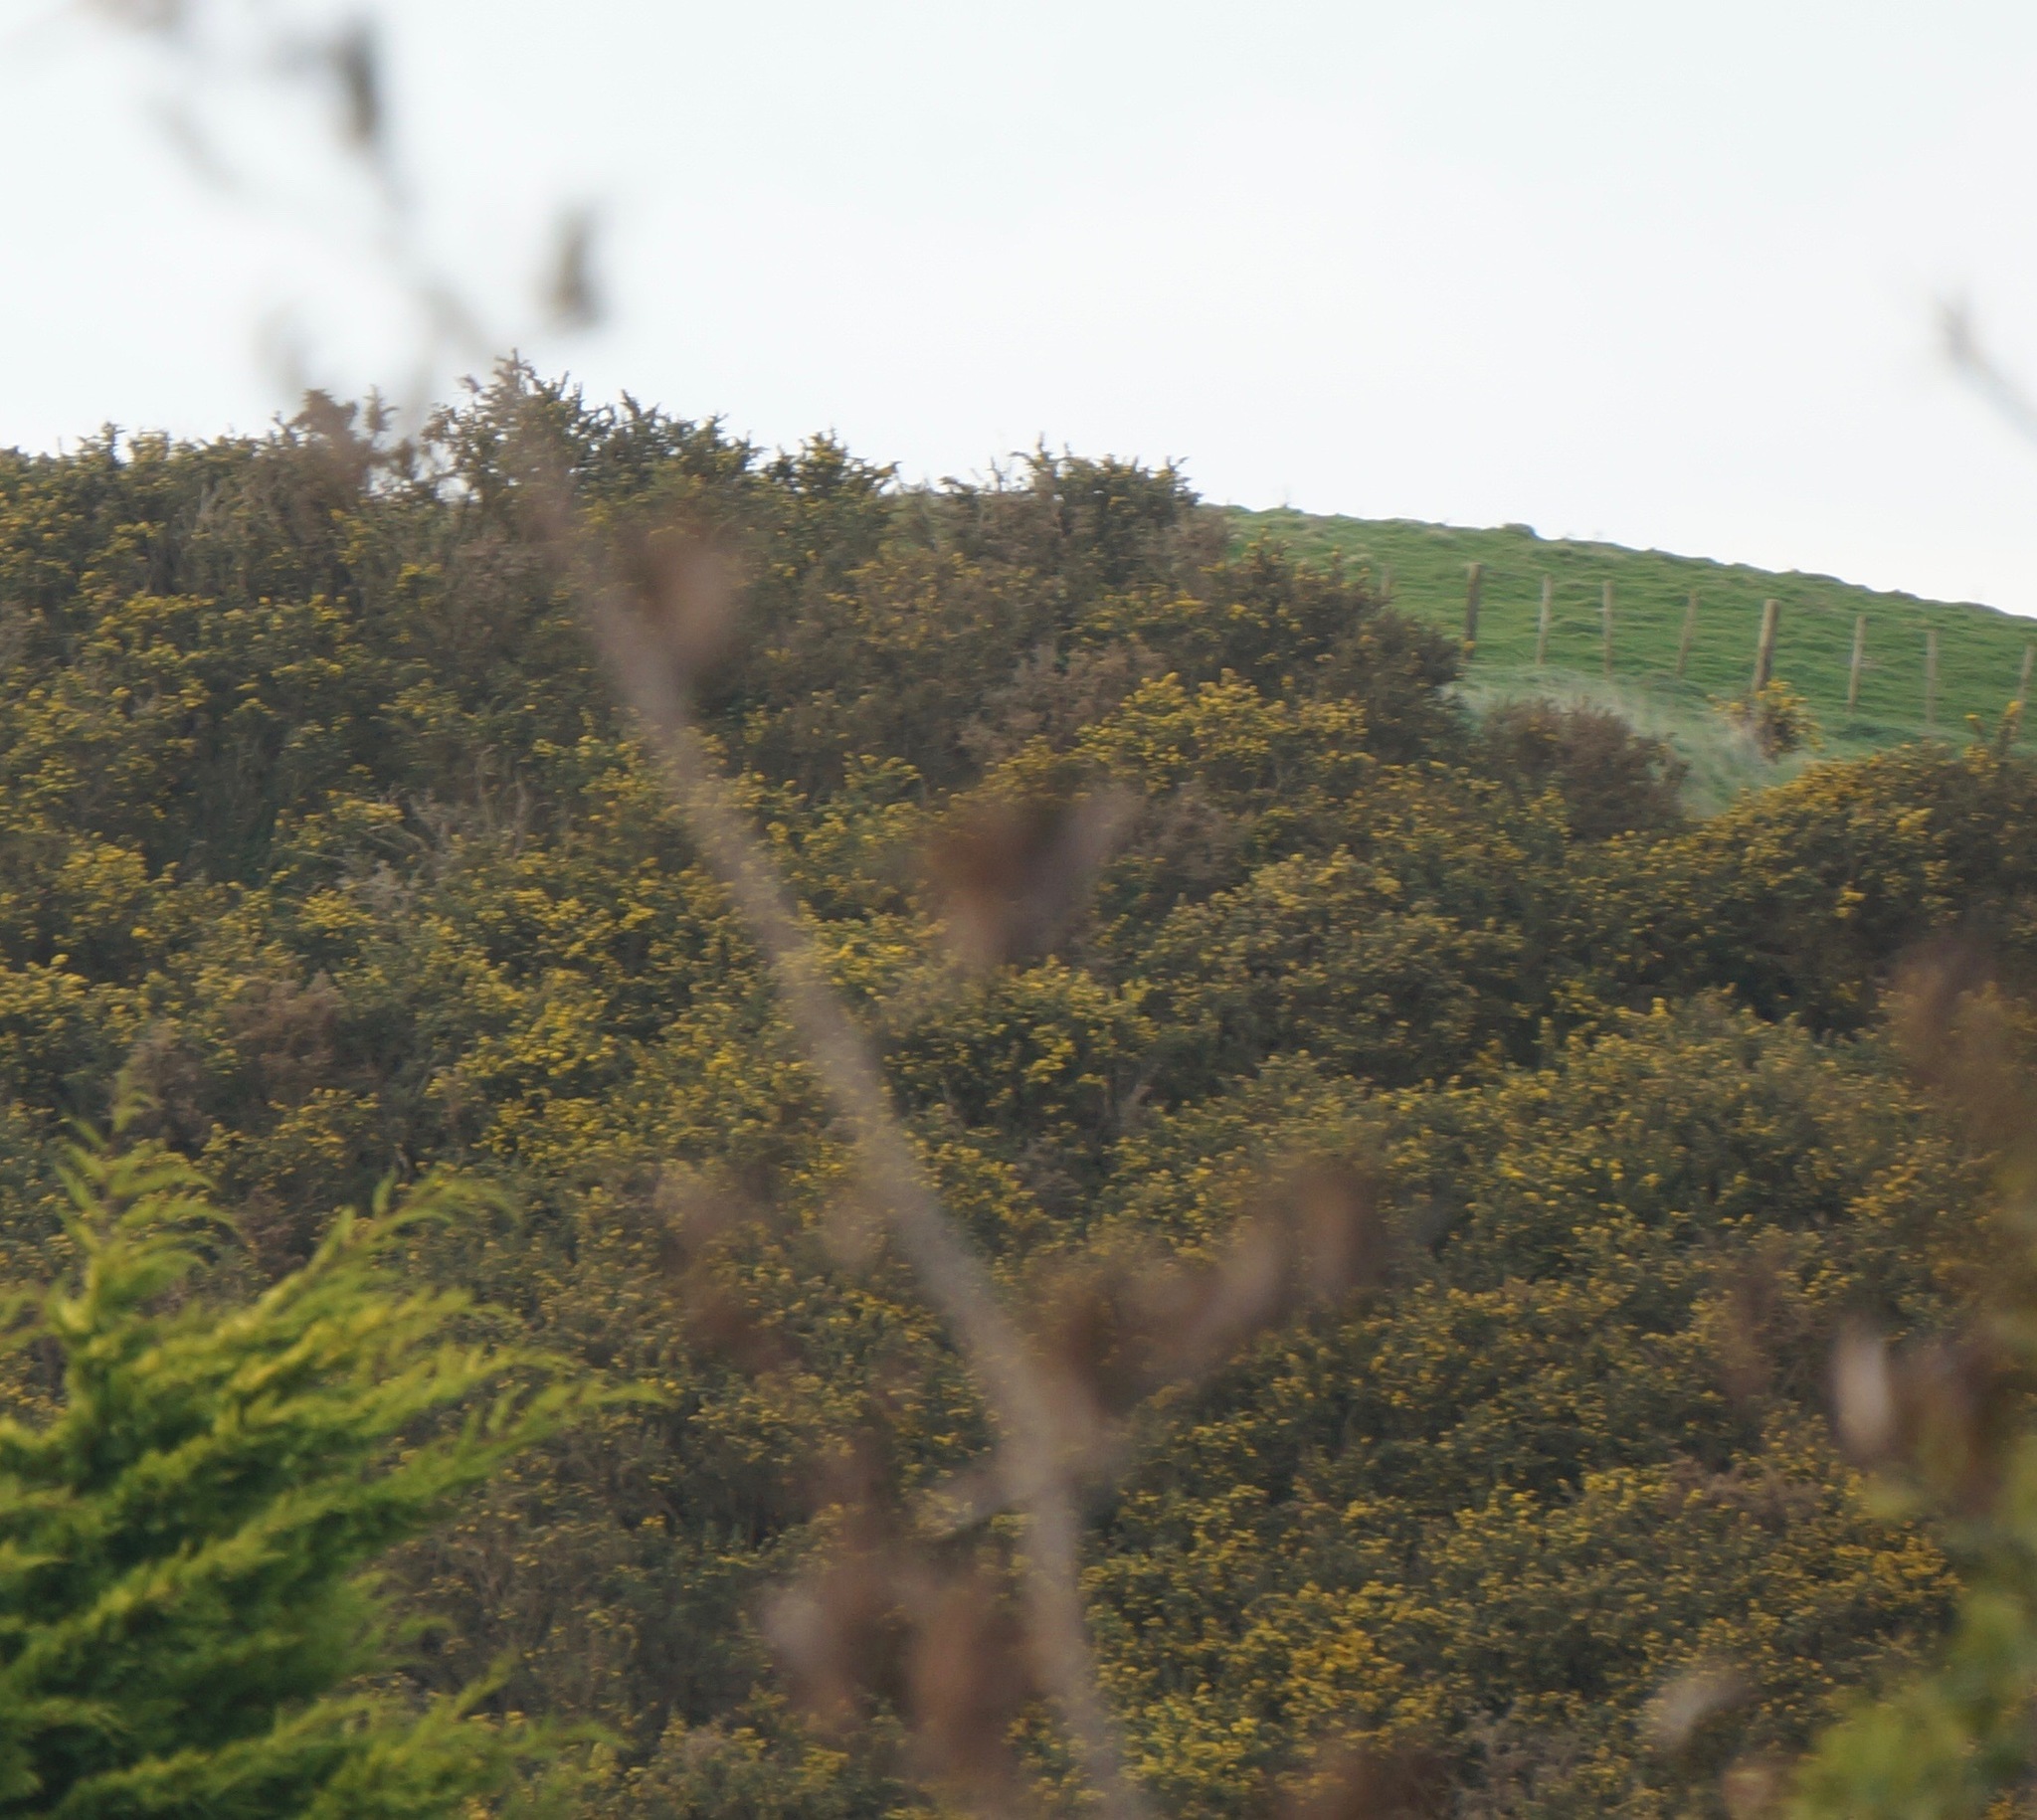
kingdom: Plantae
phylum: Tracheophyta
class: Magnoliopsida
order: Fabales
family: Fabaceae
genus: Ulex
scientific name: Ulex europaeus
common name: Common gorse
